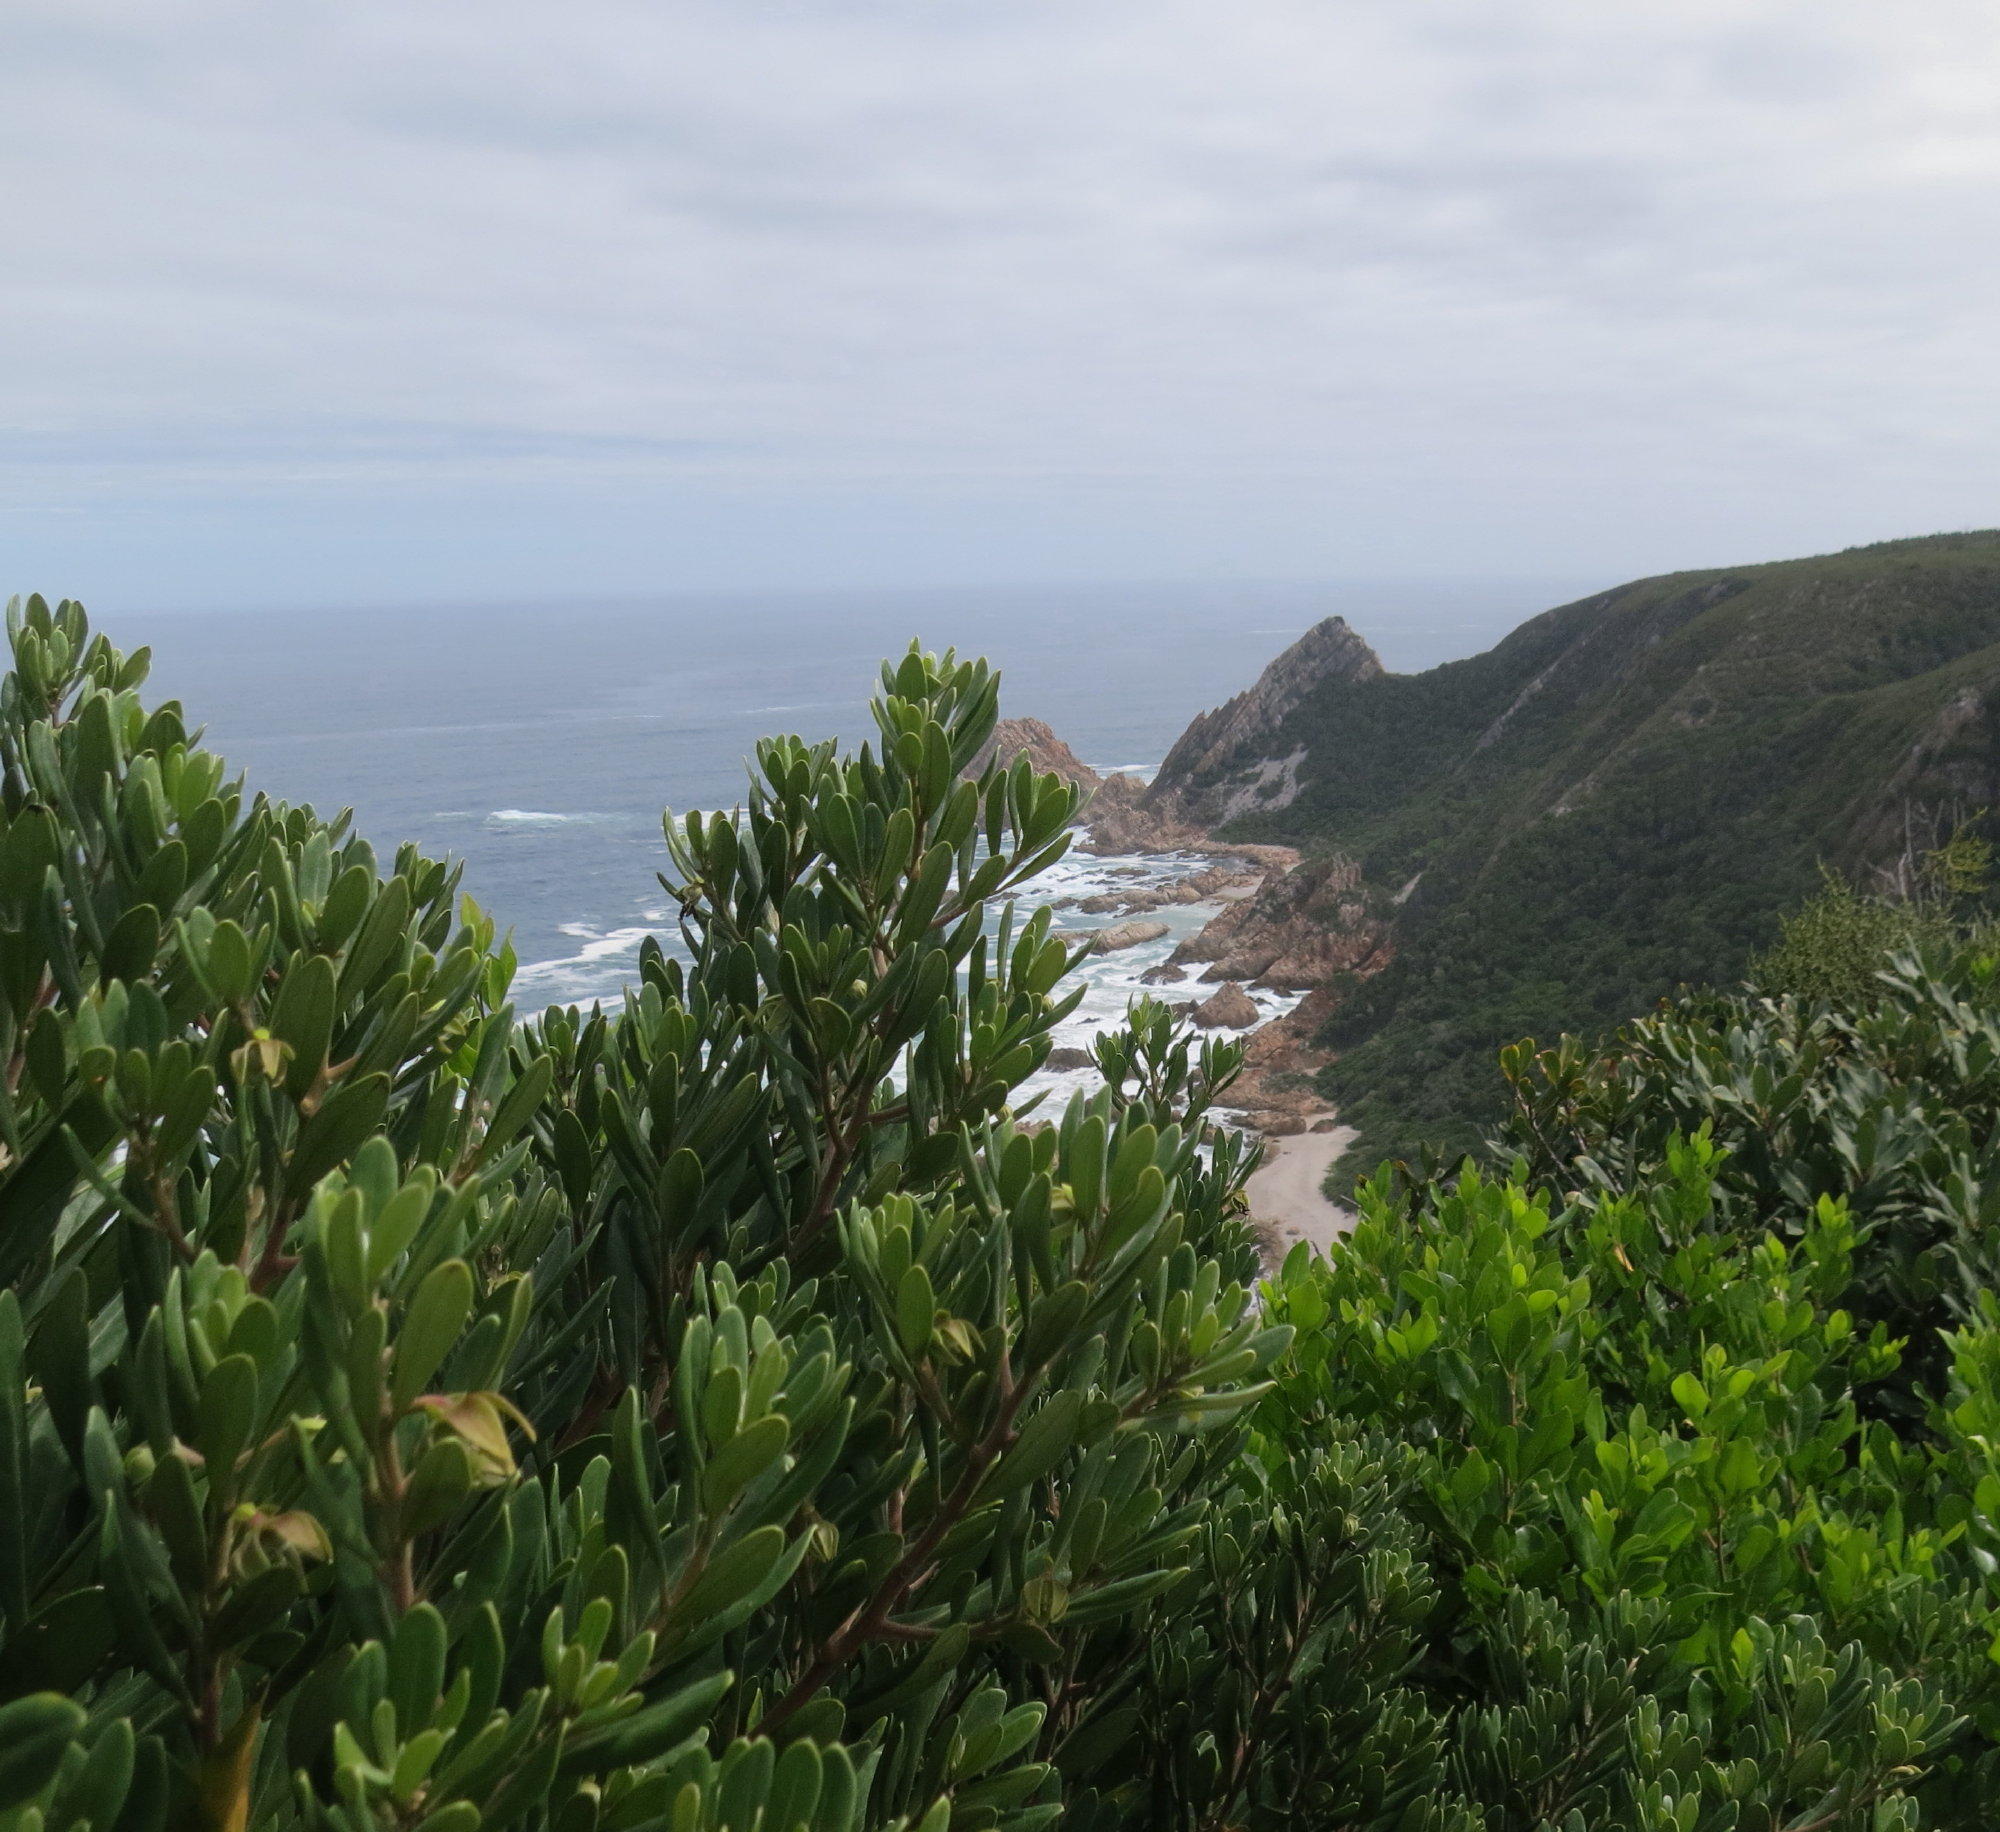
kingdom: Plantae
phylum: Tracheophyta
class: Magnoliopsida
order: Ericales
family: Ebenaceae
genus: Diospyros
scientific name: Diospyros dichrophylla
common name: Common star-apple
